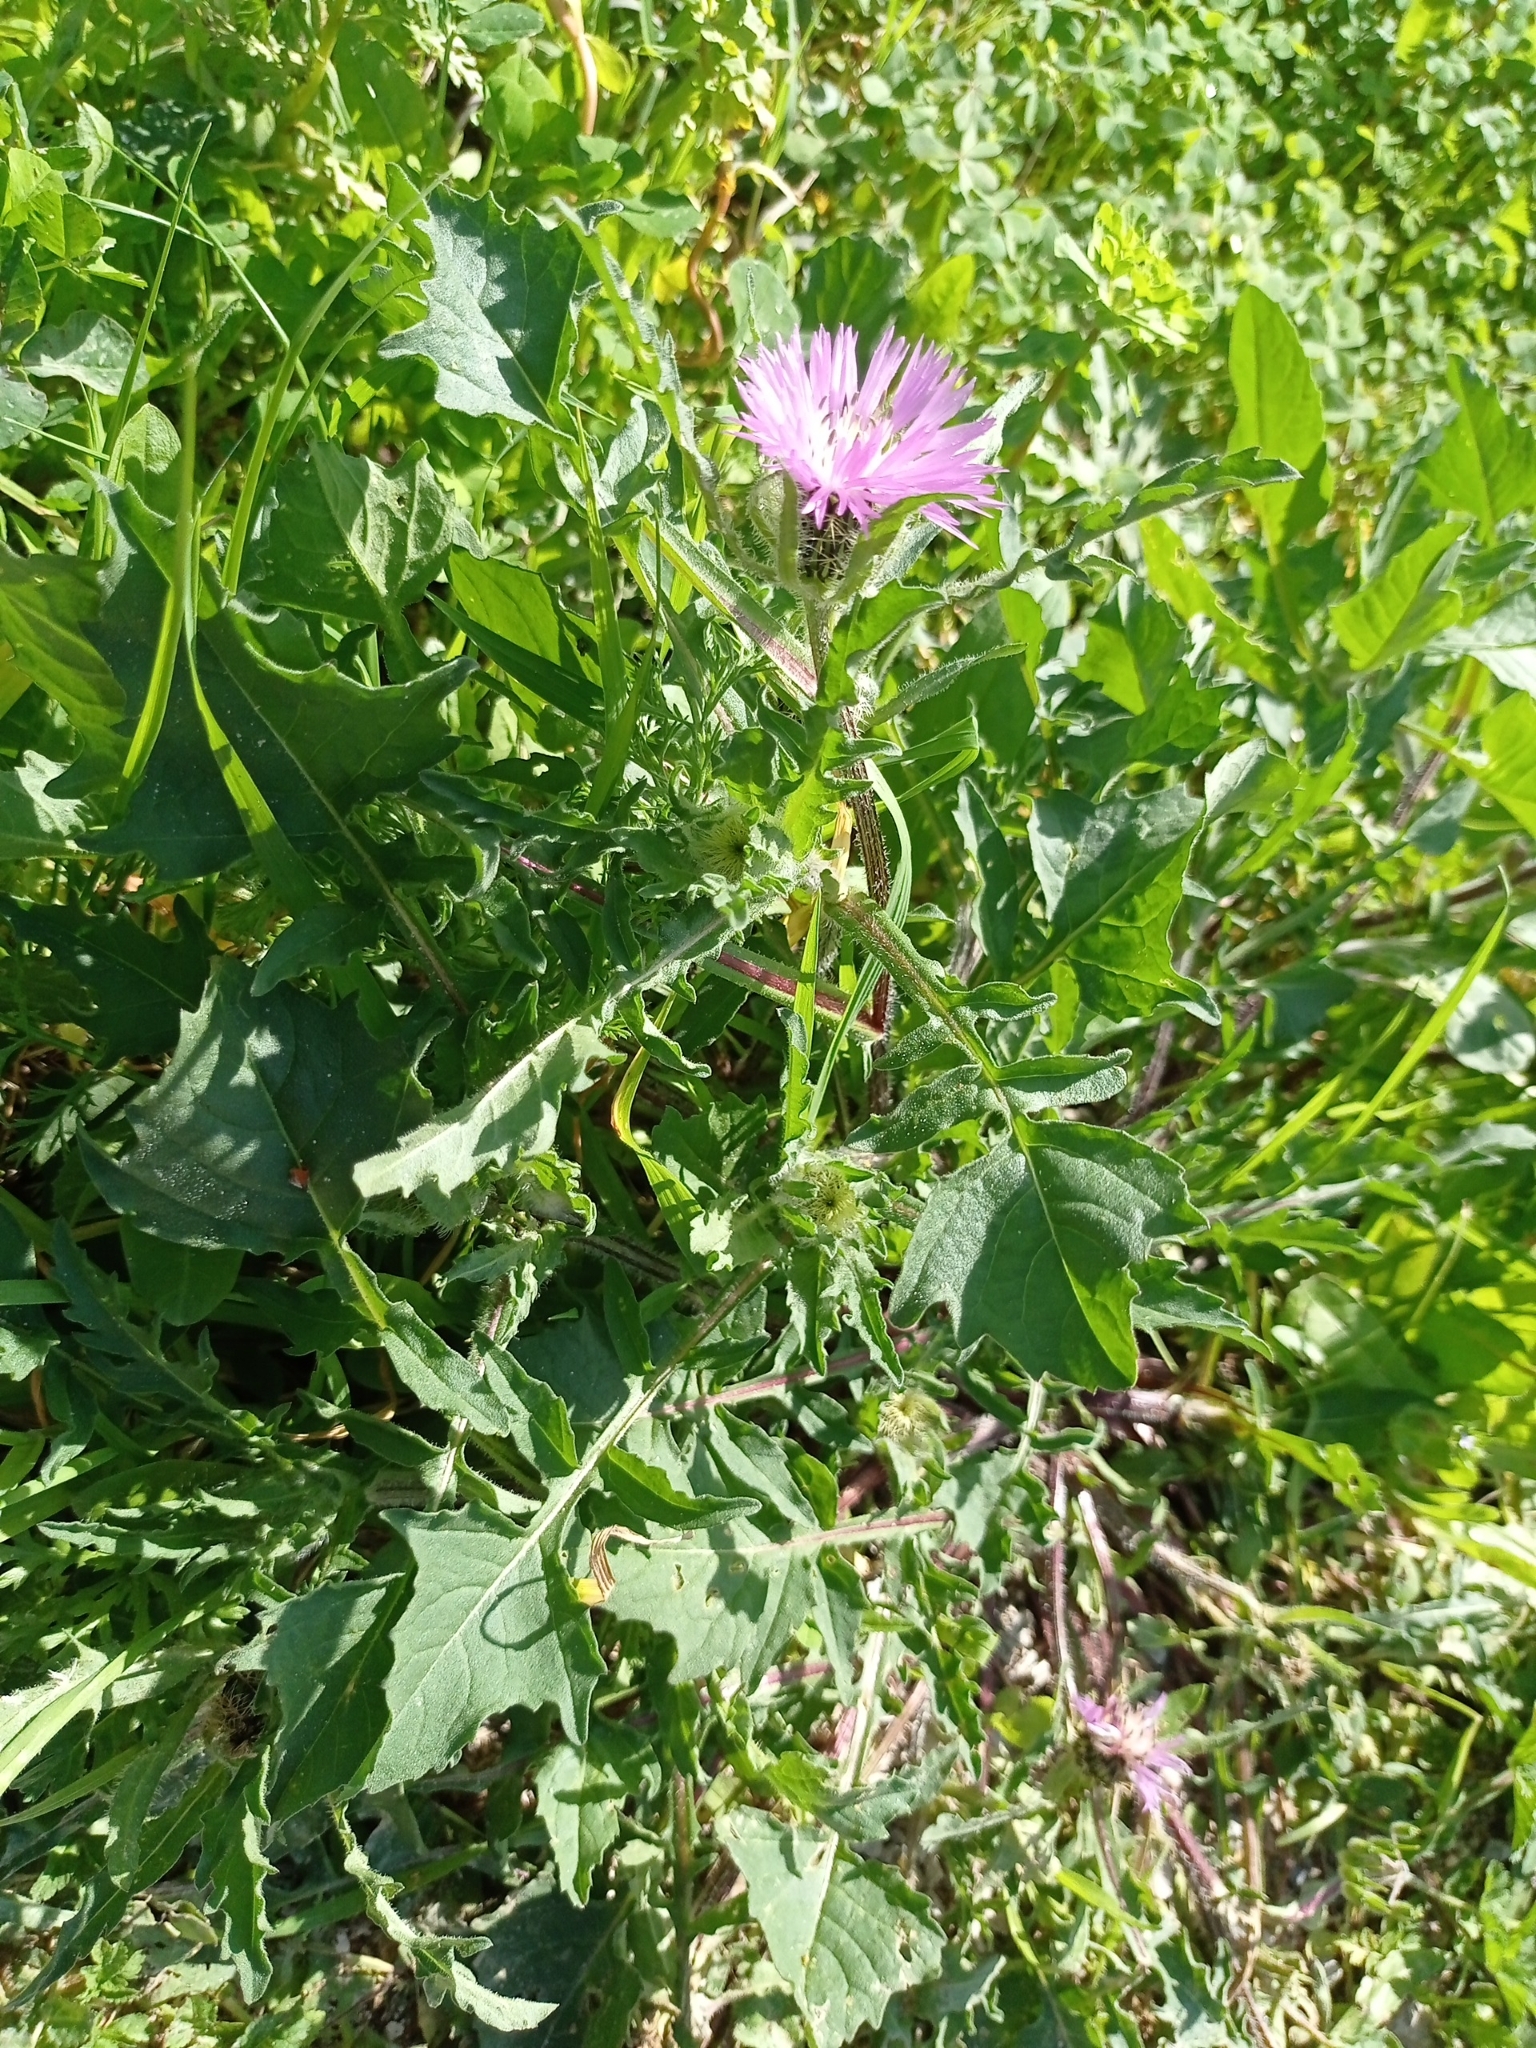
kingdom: Plantae
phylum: Tracheophyta
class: Magnoliopsida
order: Asterales
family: Asteraceae
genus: Galactites
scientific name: Galactites tomentosa
